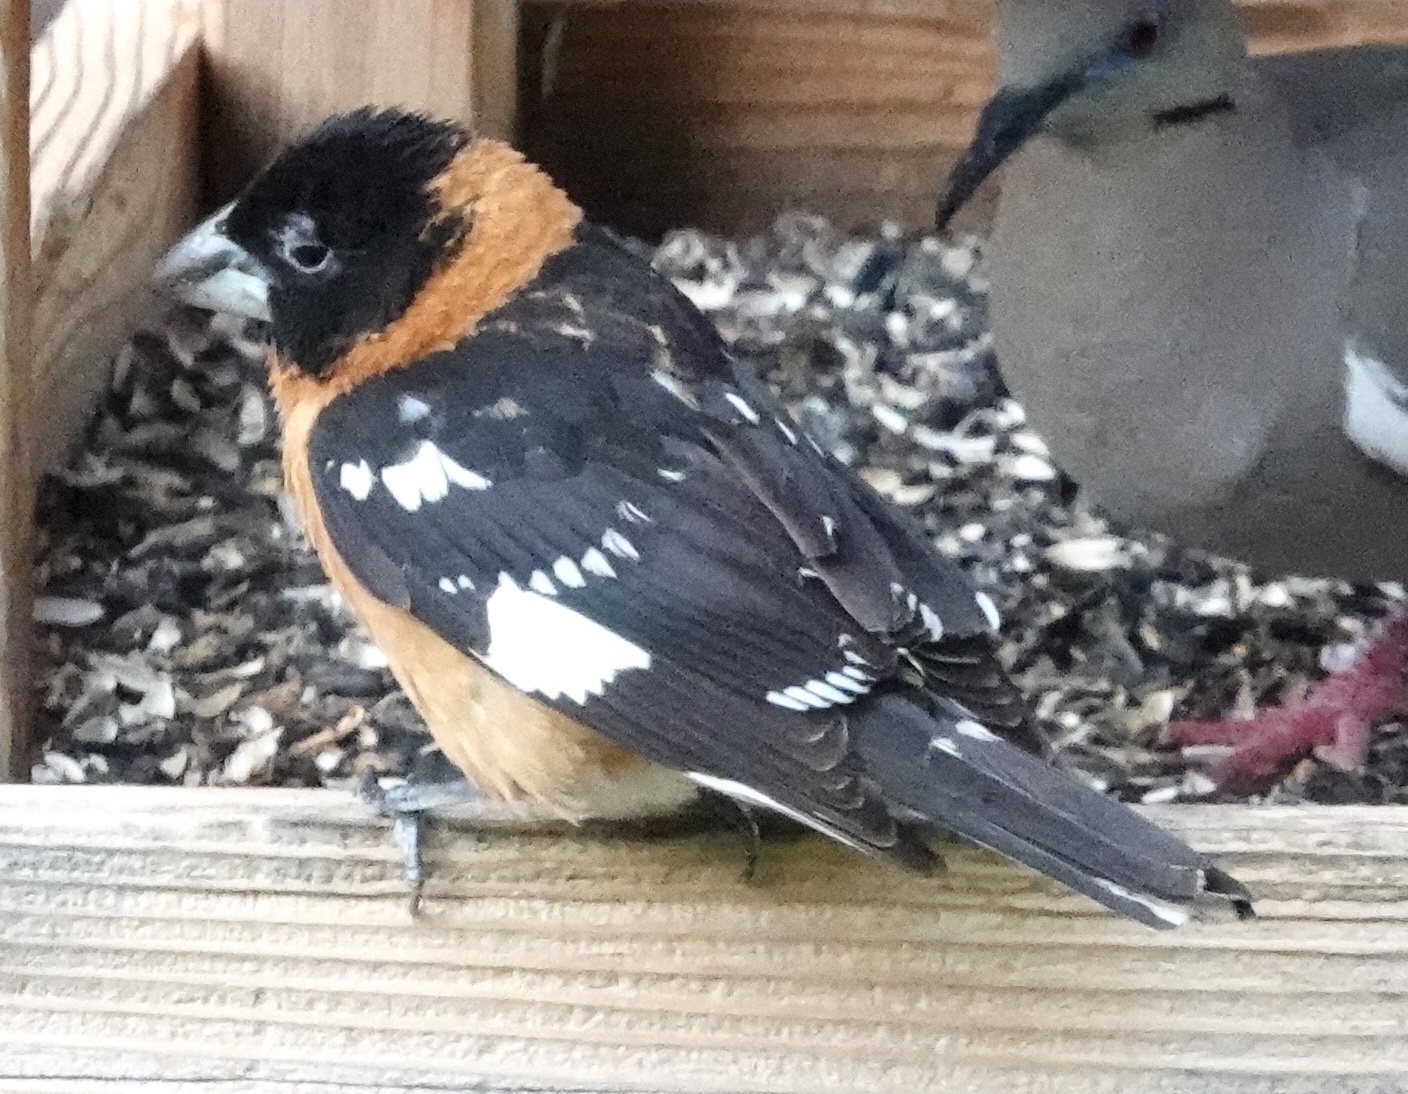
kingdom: Animalia
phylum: Chordata
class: Aves
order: Passeriformes
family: Cardinalidae
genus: Pheucticus
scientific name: Pheucticus melanocephalus
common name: Black-headed grosbeak
